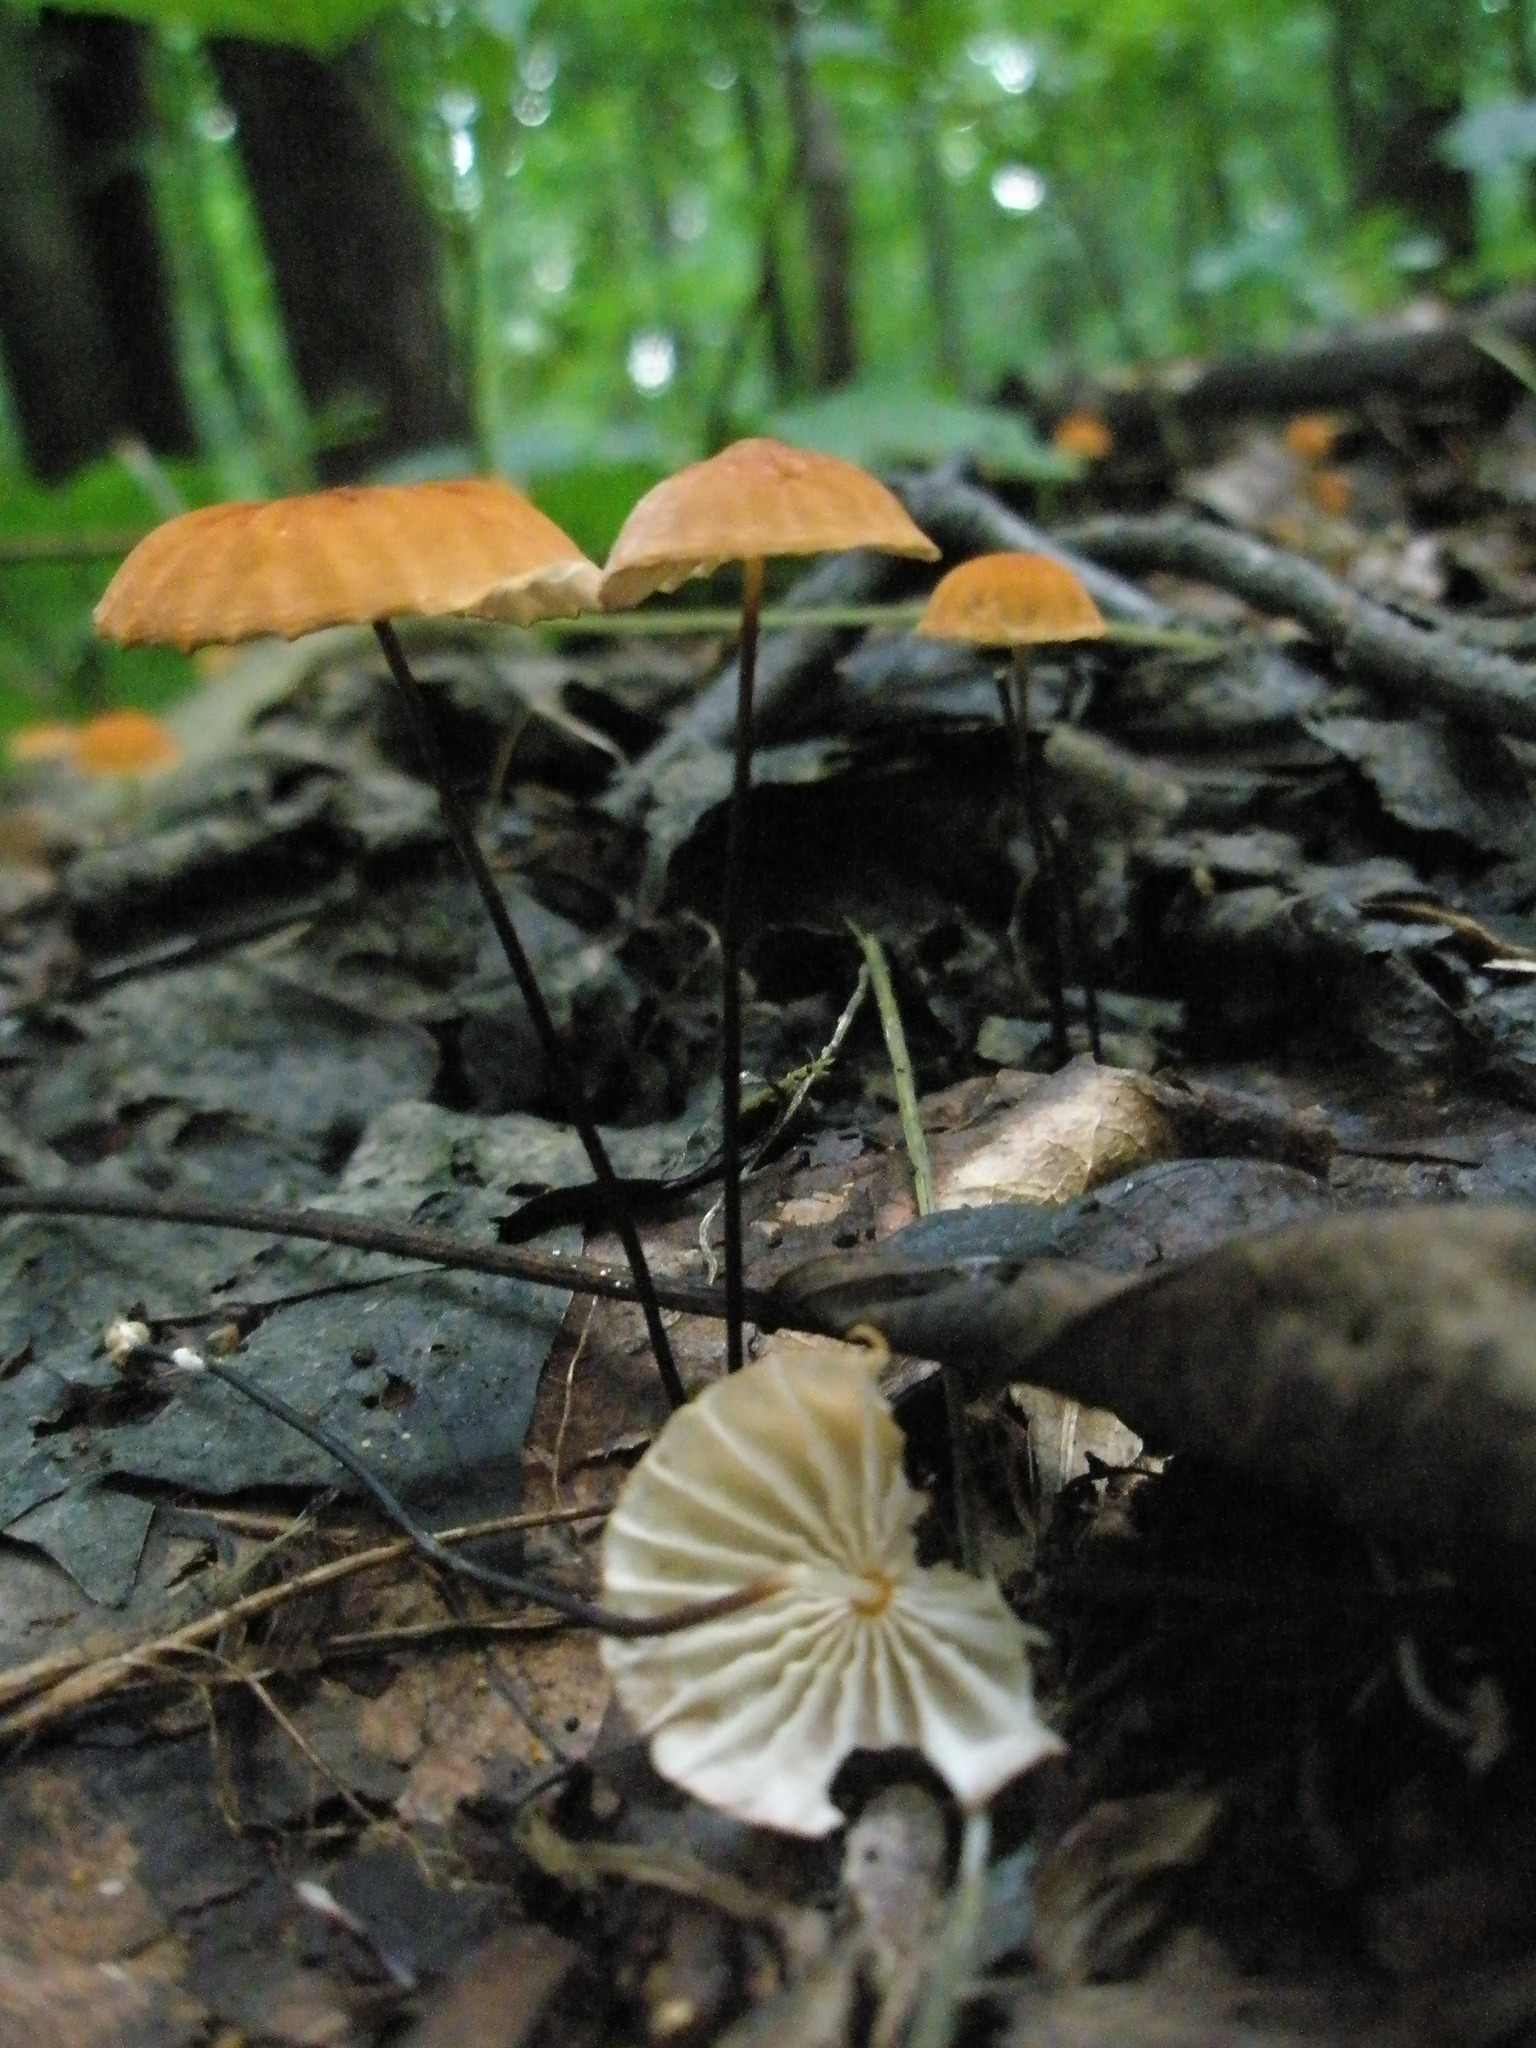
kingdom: Fungi
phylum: Basidiomycota
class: Agaricomycetes
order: Agaricales
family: Marasmiaceae
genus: Marasmius
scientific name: Marasmius siccus
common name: Orange pinwheel
